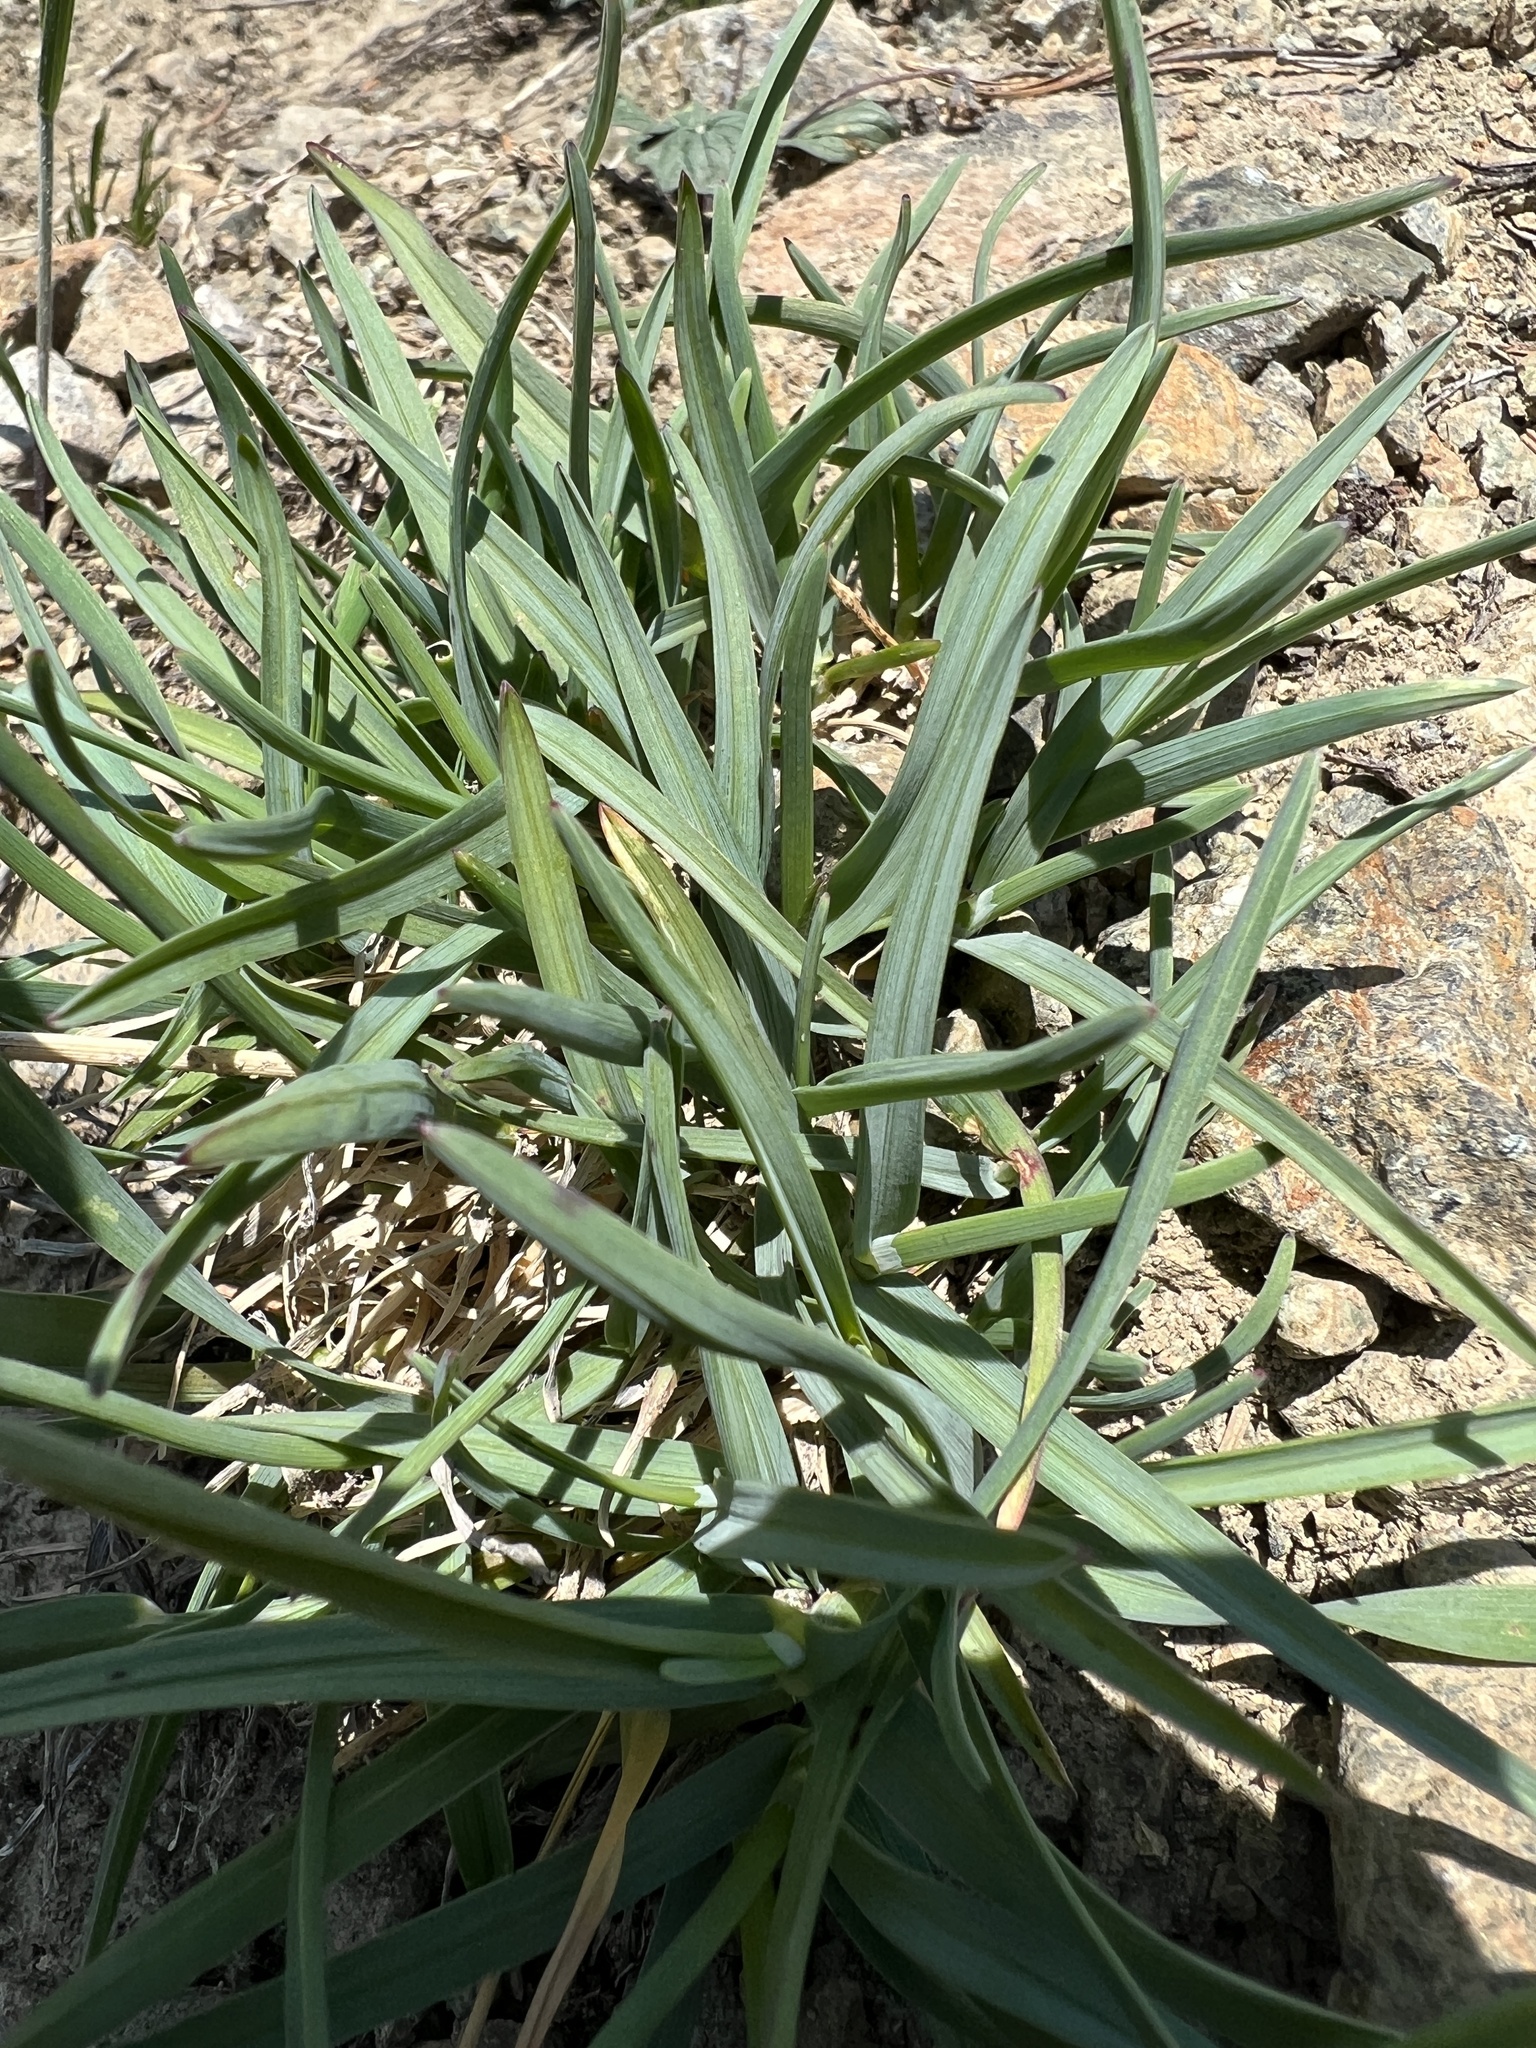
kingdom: Plantae
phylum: Tracheophyta
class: Liliopsida
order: Poales
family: Poaceae
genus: Poa
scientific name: Poa curtifolia
